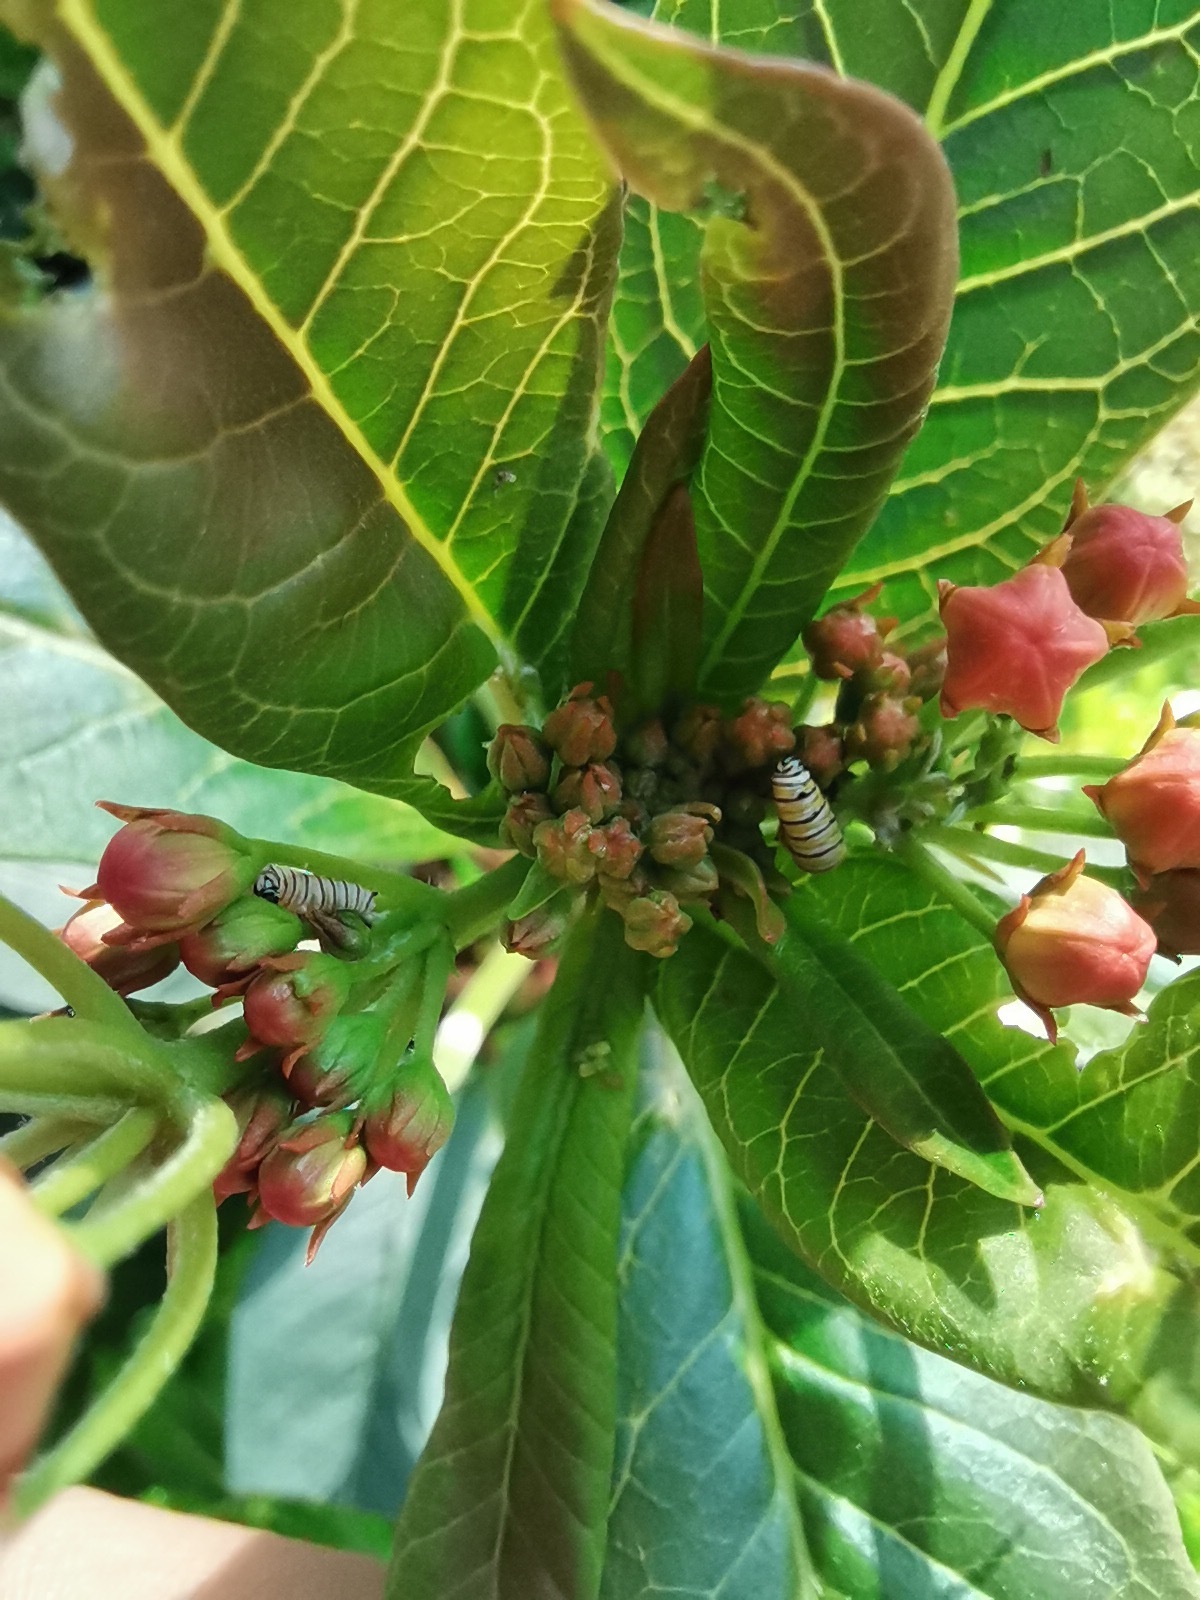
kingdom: Animalia
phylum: Arthropoda
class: Insecta
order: Lepidoptera
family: Nymphalidae
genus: Danaus
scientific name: Danaus plexippus
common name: Monarch
